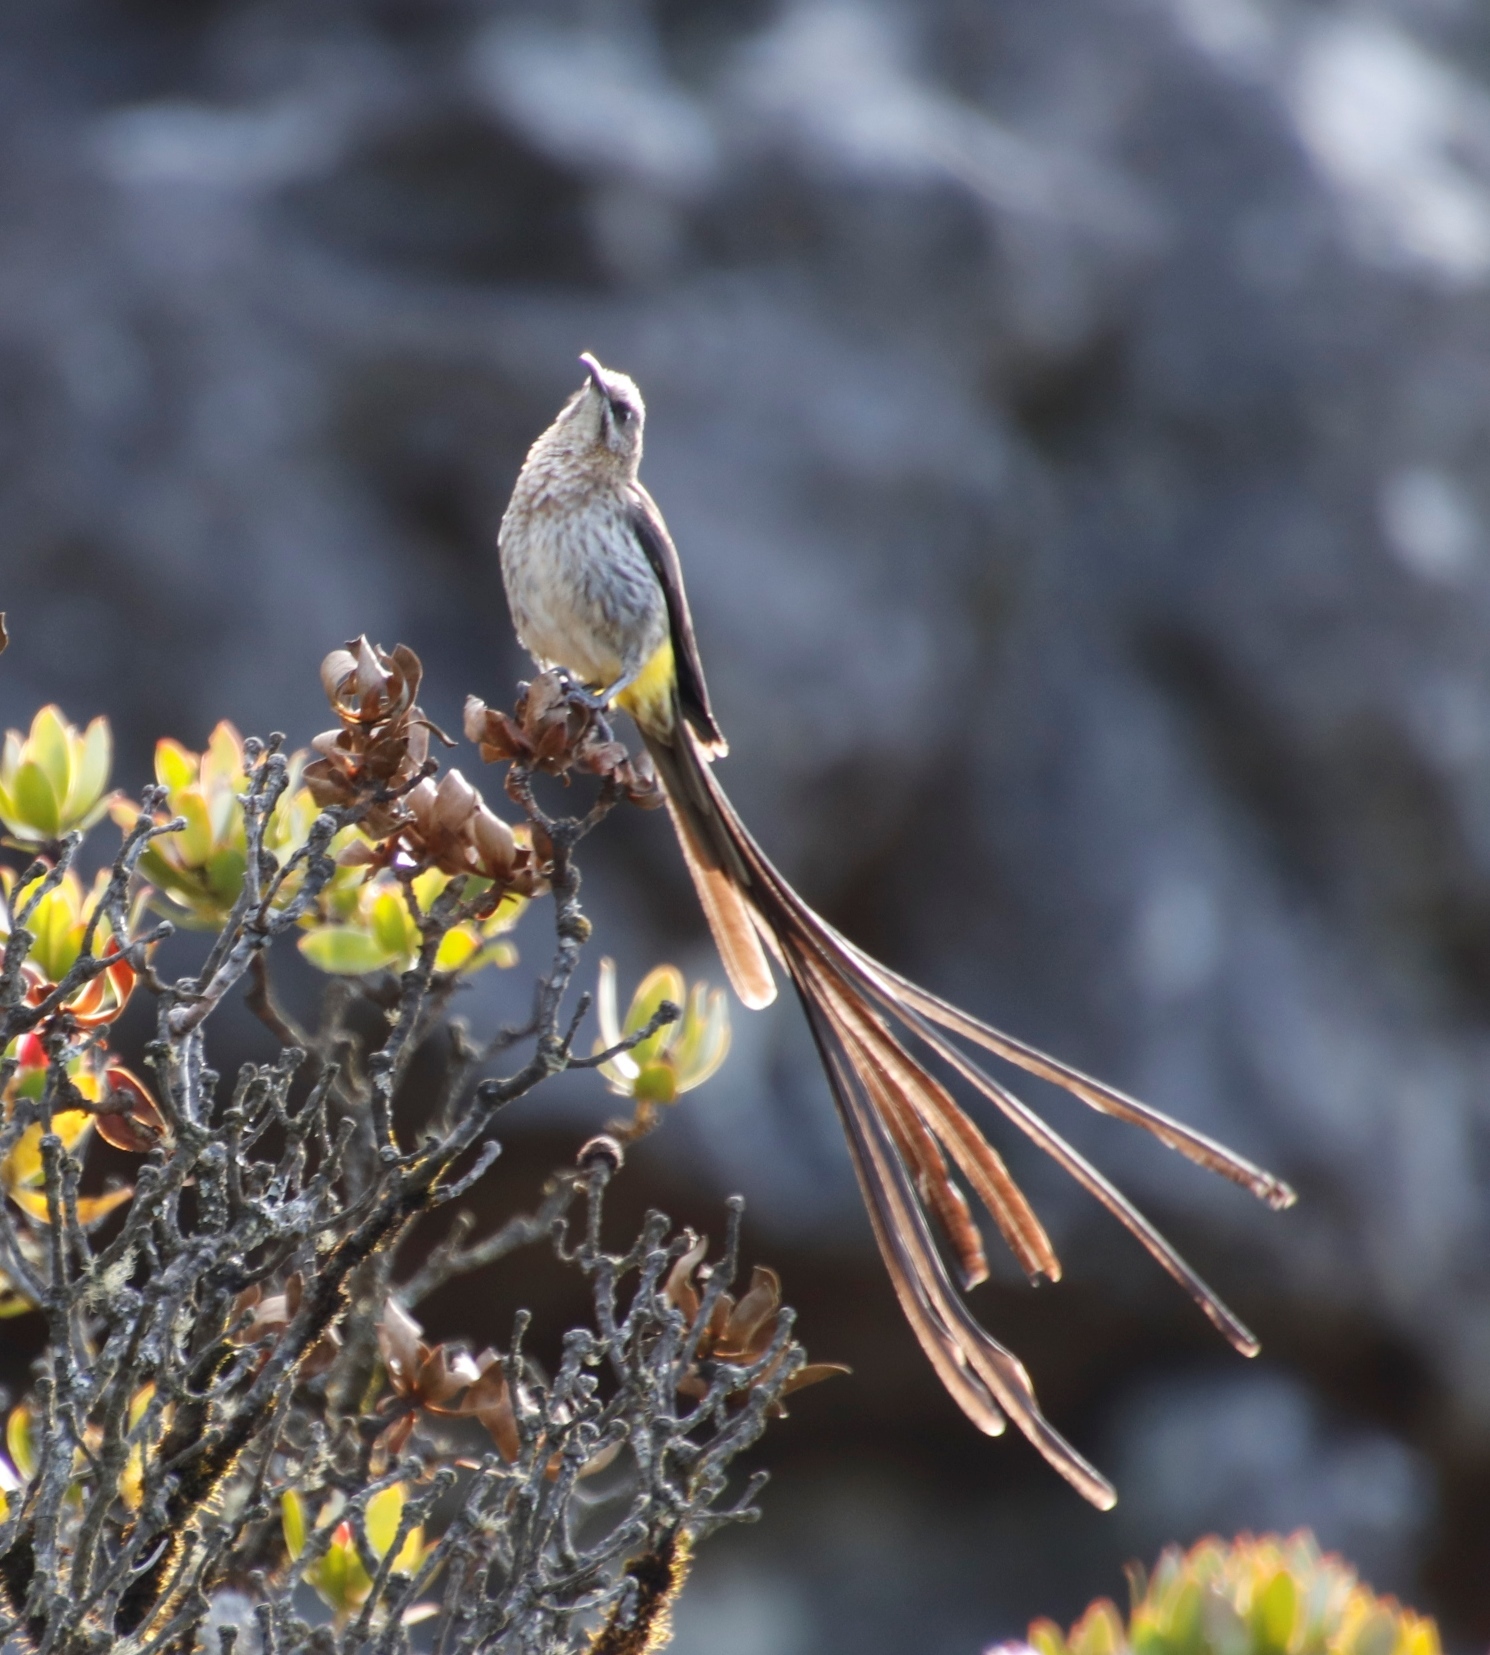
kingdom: Animalia
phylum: Chordata
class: Aves
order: Passeriformes
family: Promeropidae
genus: Promerops
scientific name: Promerops cafer
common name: Cape sugarbird
